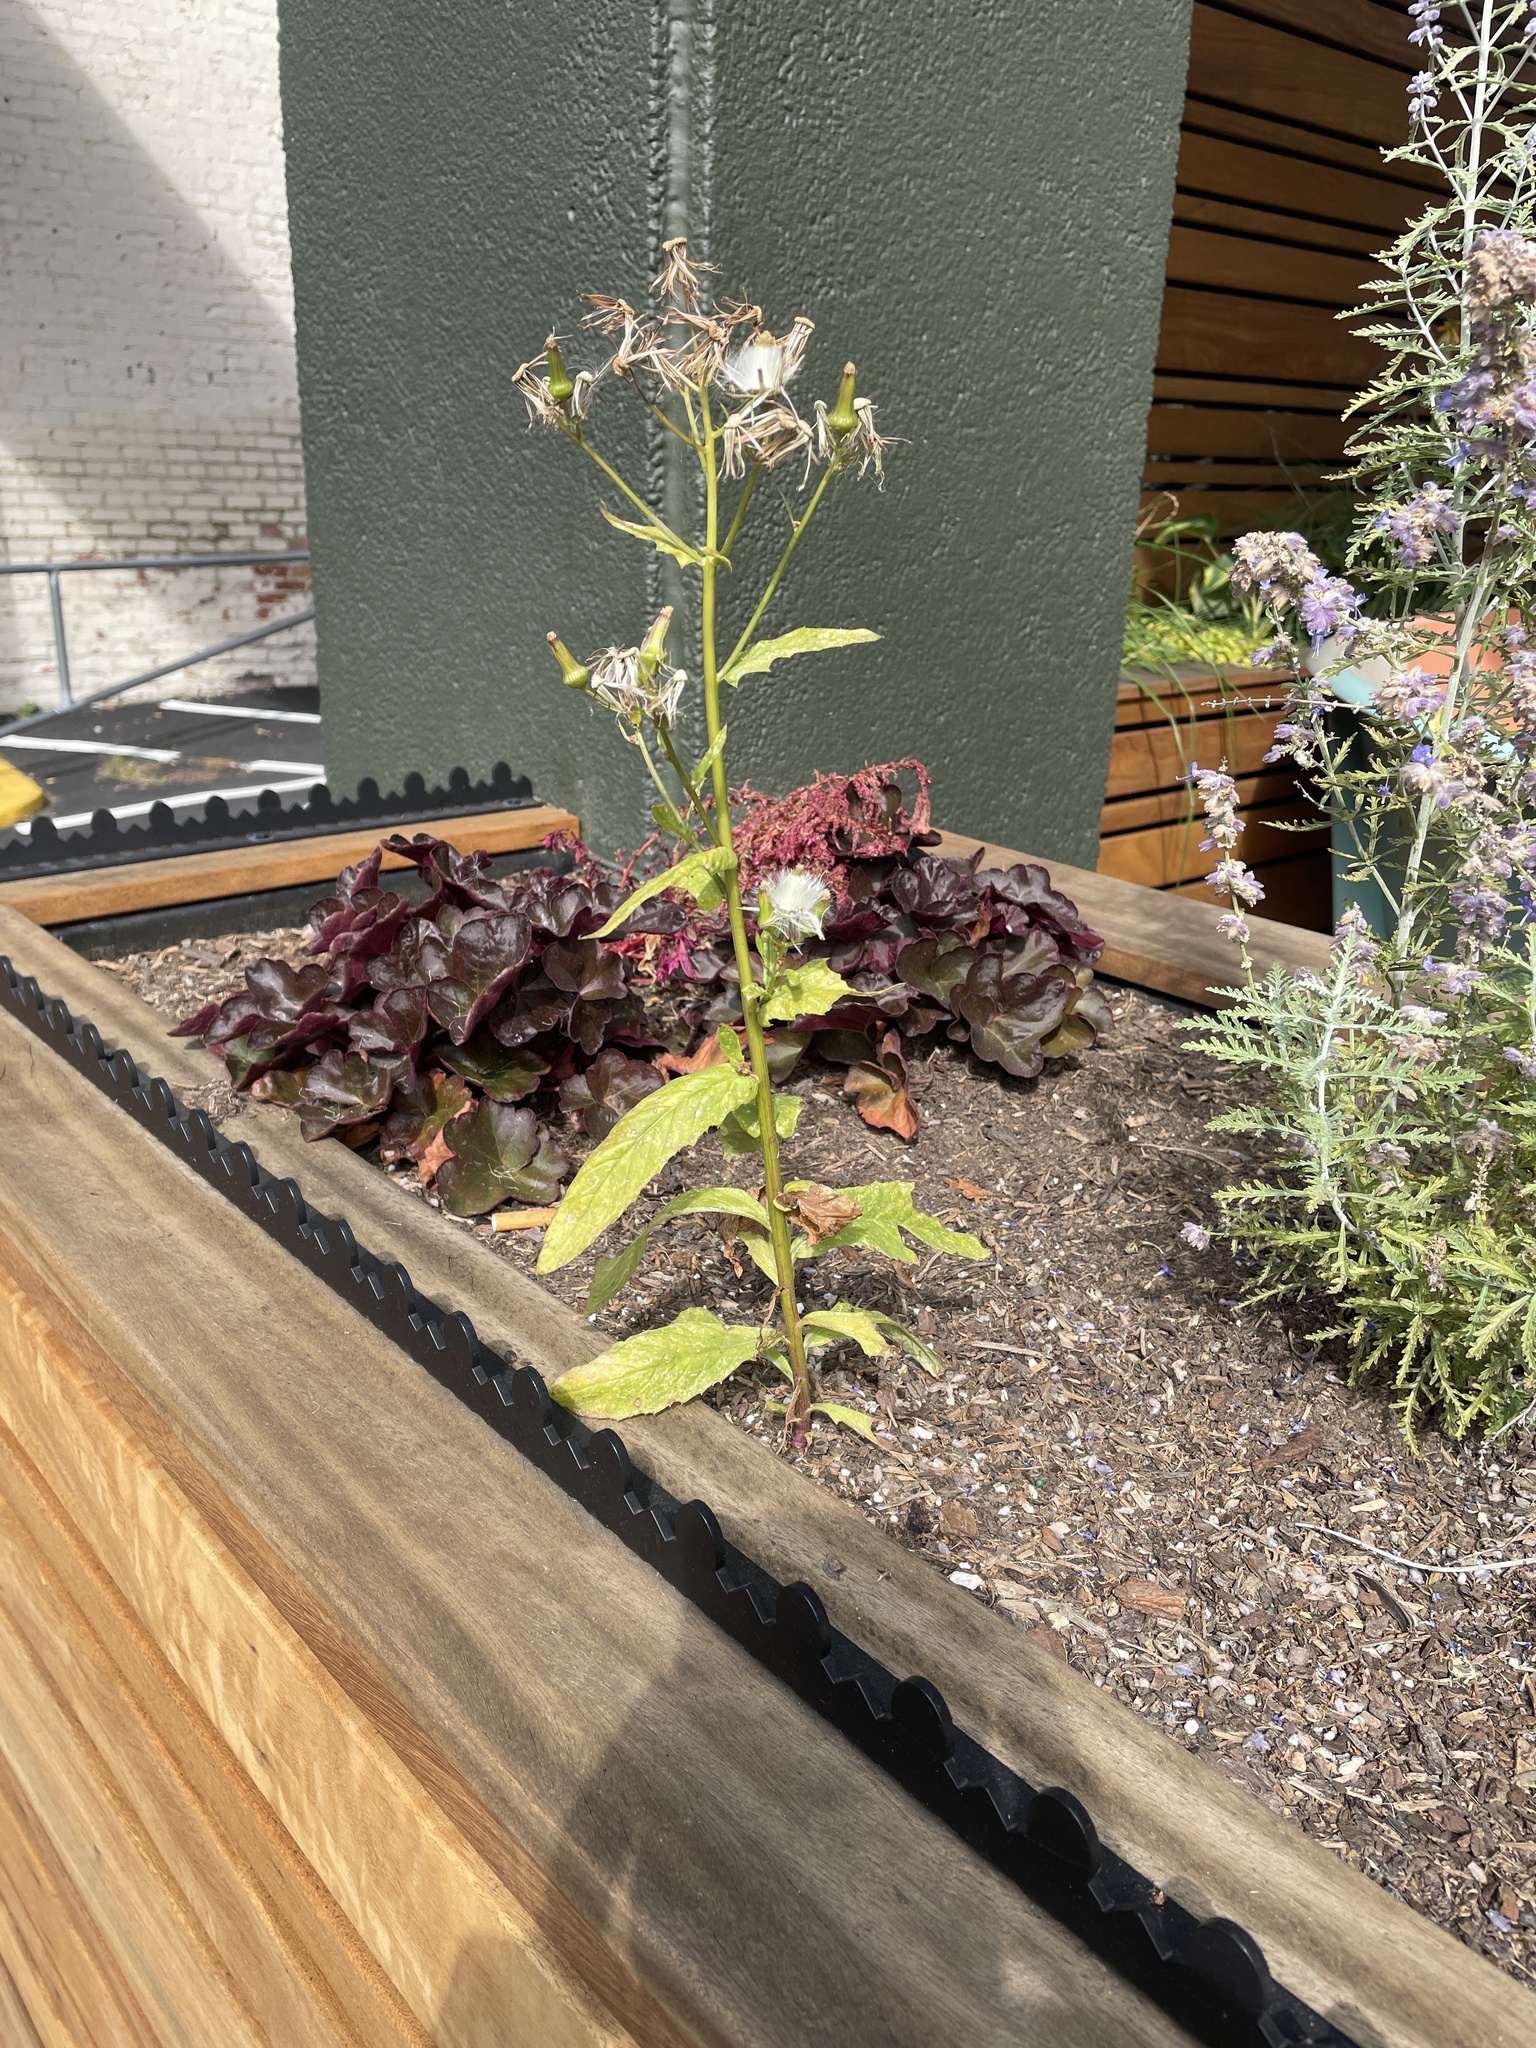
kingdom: Plantae
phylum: Tracheophyta
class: Magnoliopsida
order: Asterales
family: Asteraceae
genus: Erechtites
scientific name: Erechtites hieraciifolius
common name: American burnweed
